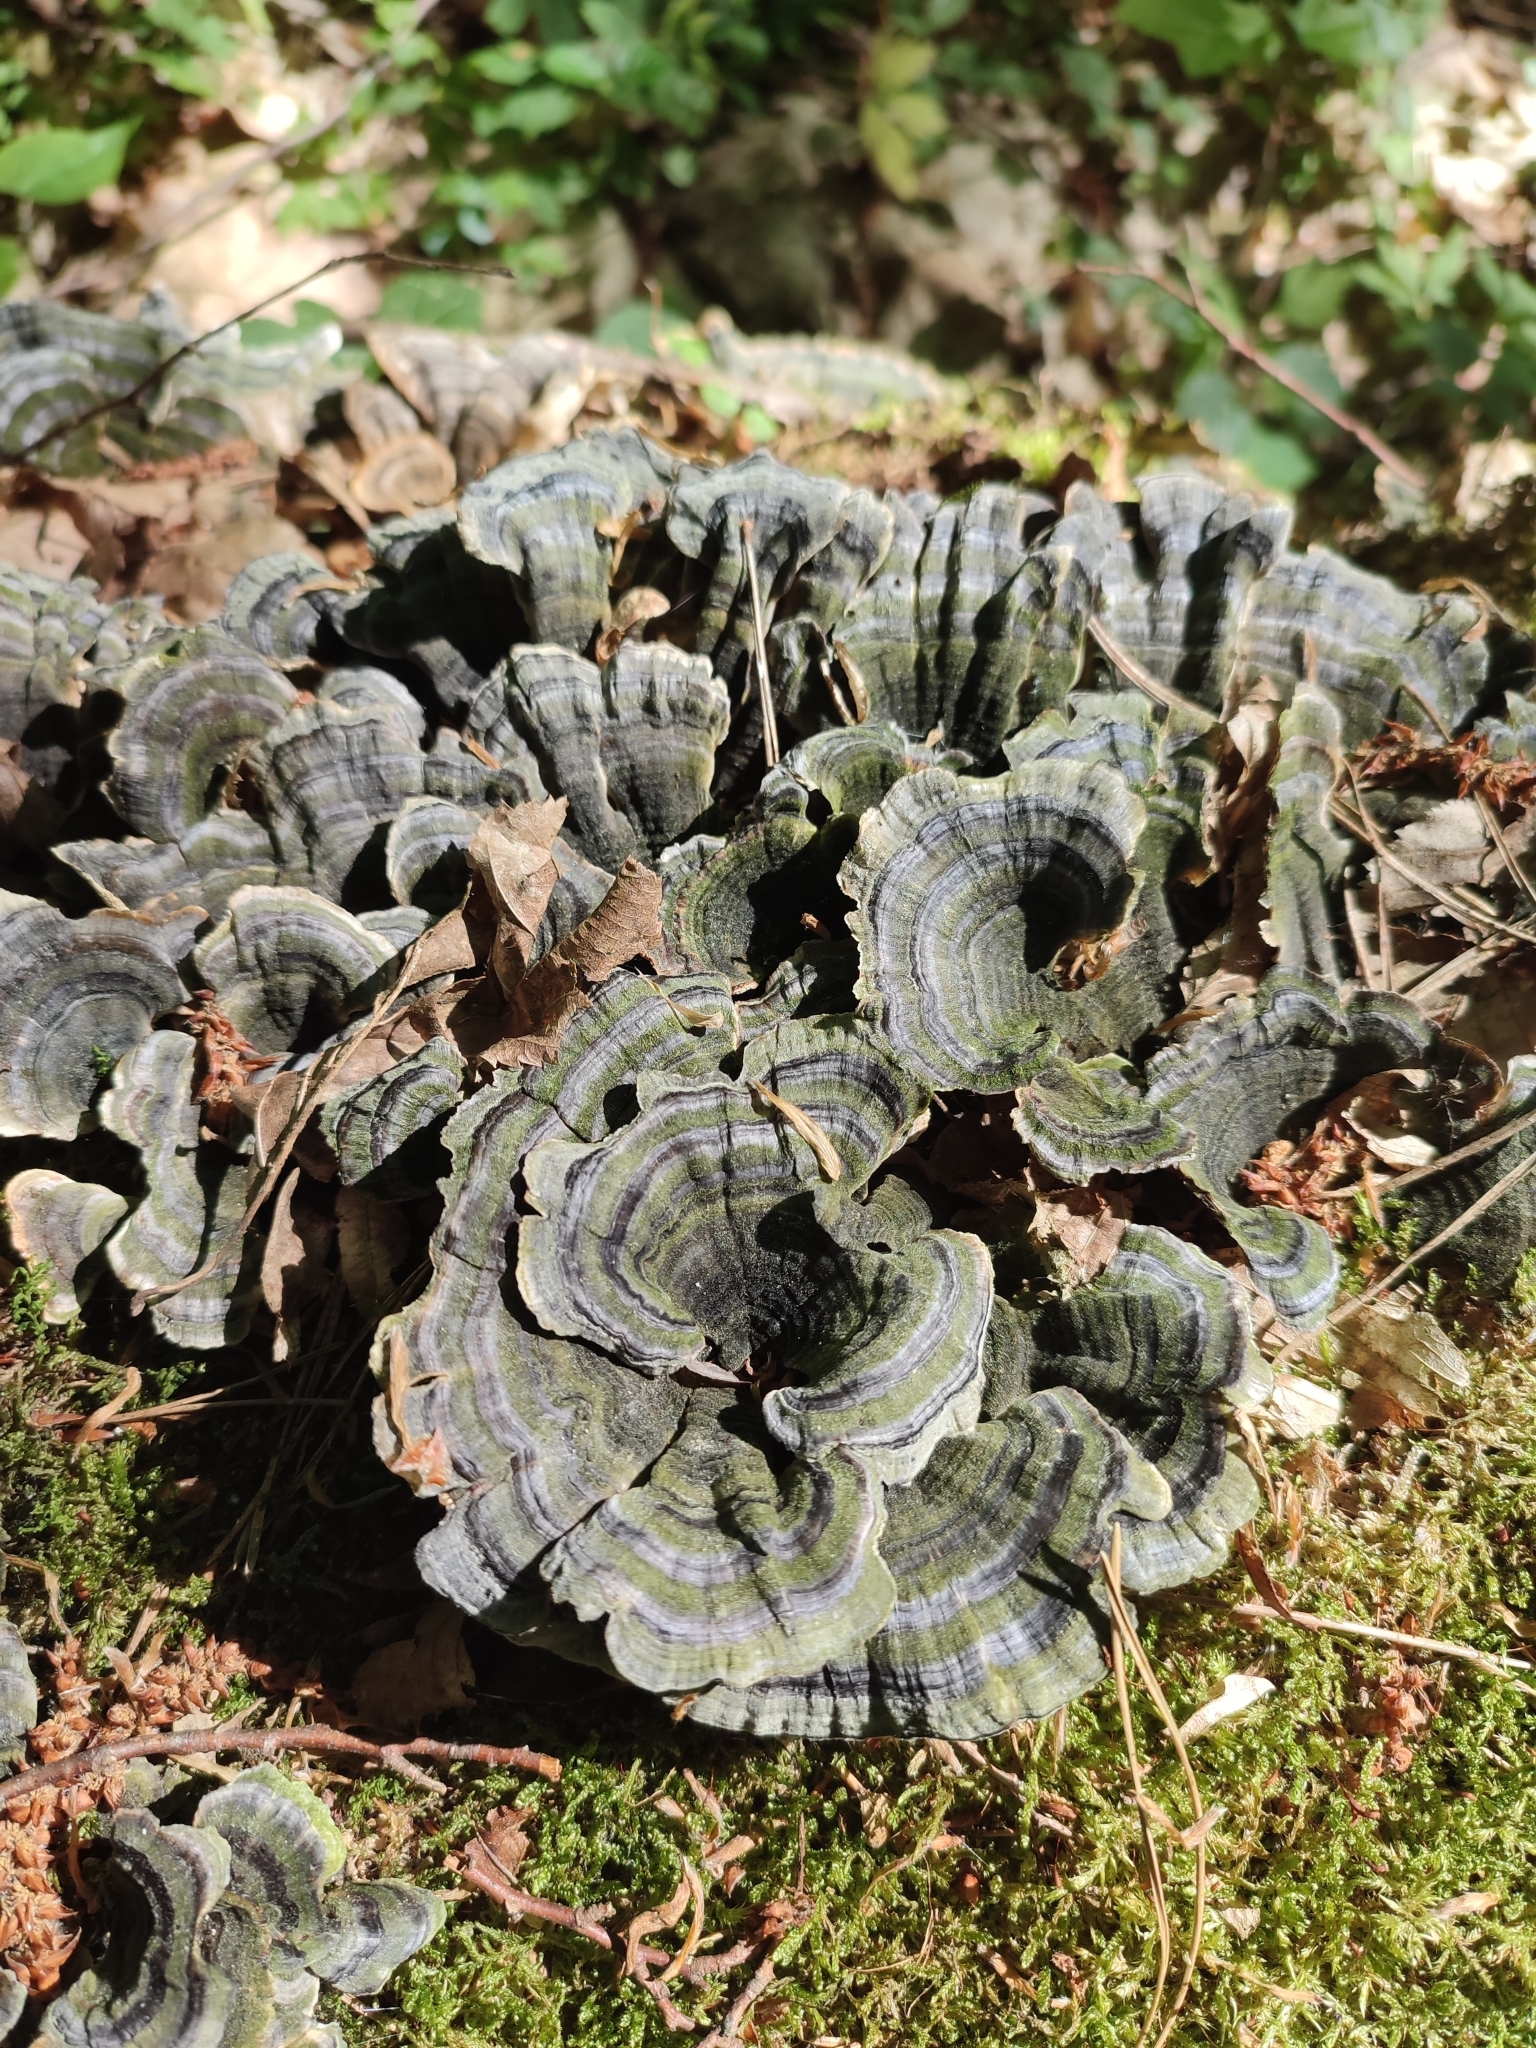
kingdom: Fungi
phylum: Basidiomycota
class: Agaricomycetes
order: Polyporales
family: Polyporaceae
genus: Trametes
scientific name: Trametes versicolor
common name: Turkeytail
